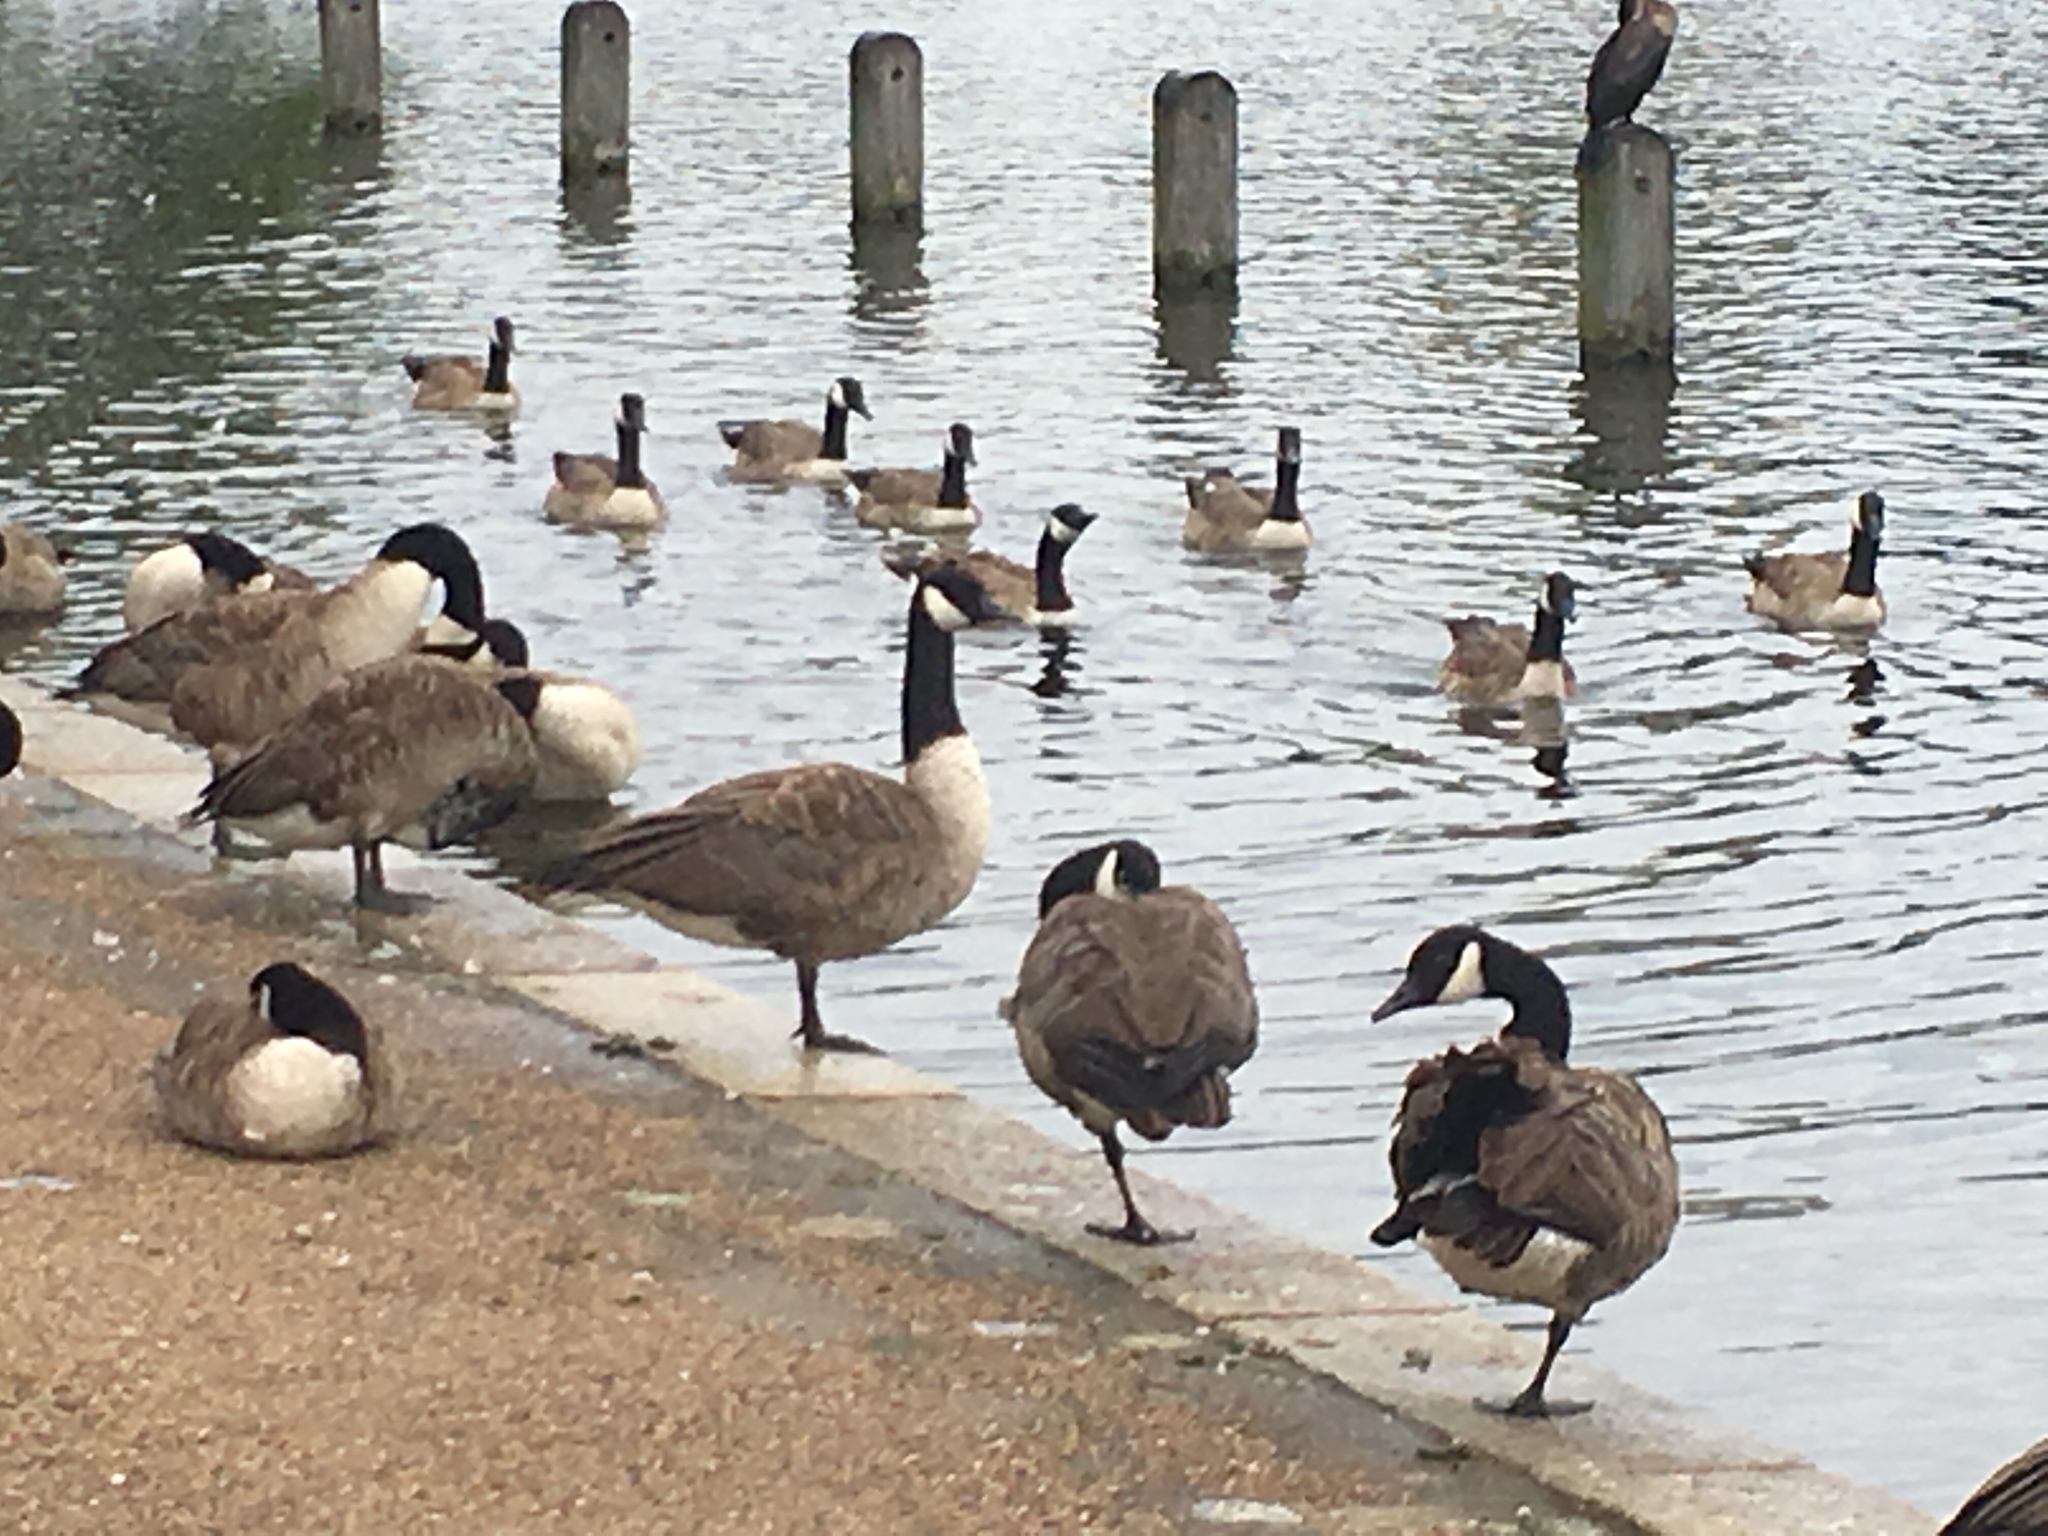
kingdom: Animalia
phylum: Chordata
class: Aves
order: Anseriformes
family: Anatidae
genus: Branta
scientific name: Branta canadensis
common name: Canada goose
